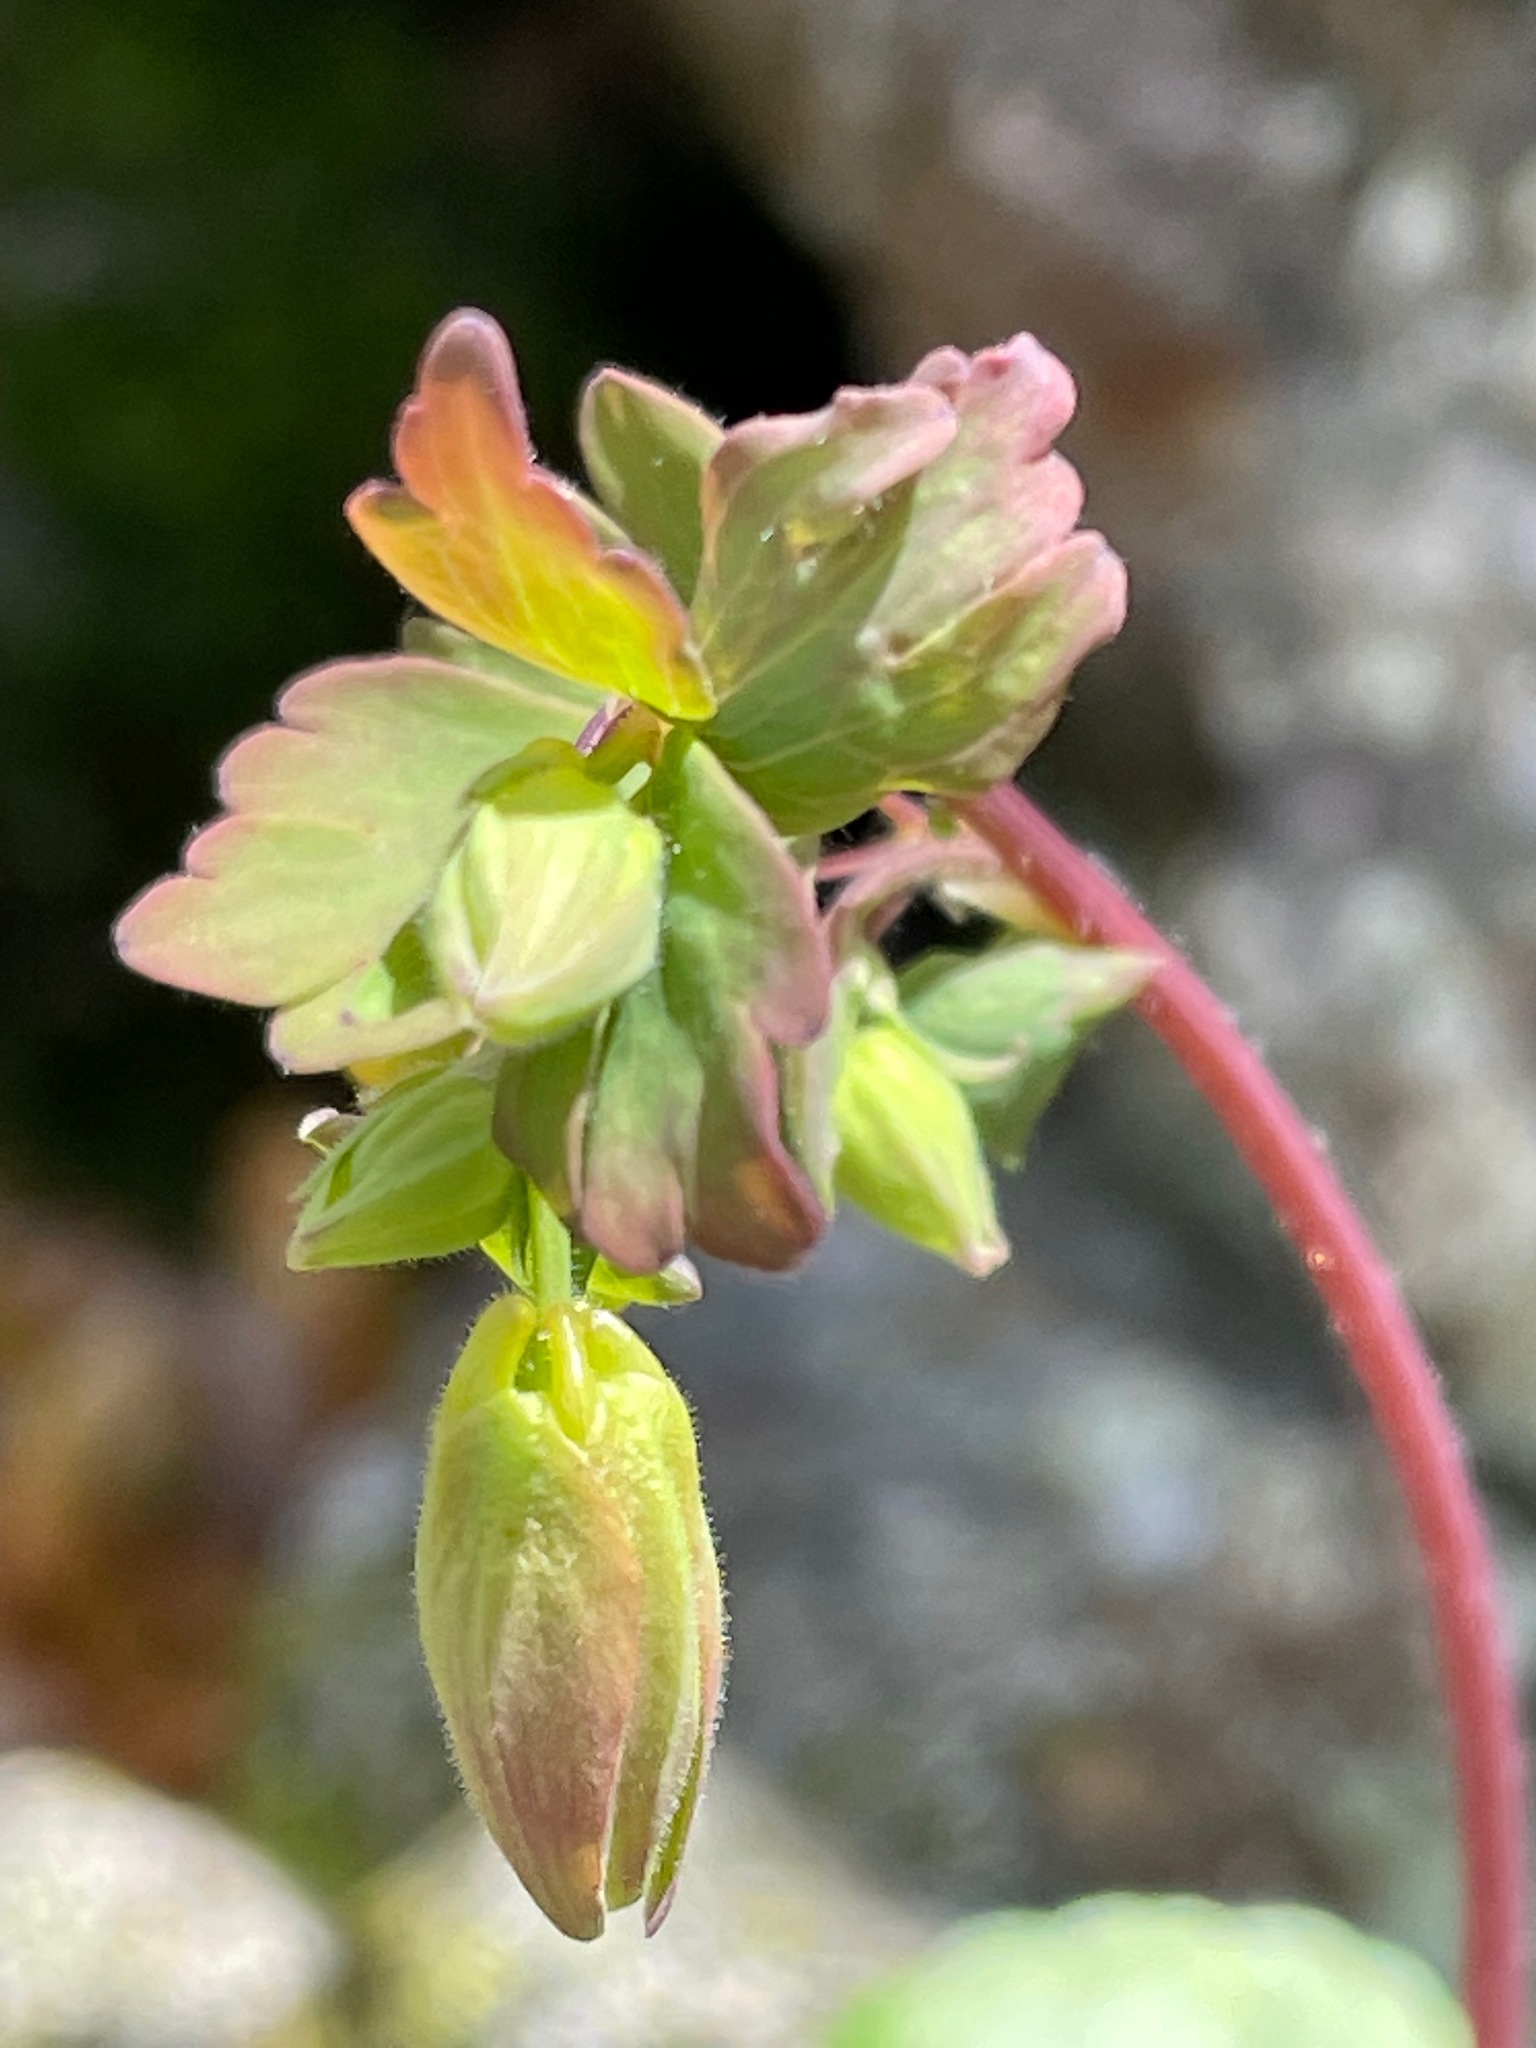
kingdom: Plantae
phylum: Tracheophyta
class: Magnoliopsida
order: Ranunculales
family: Ranunculaceae
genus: Aquilegia
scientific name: Aquilegia canadensis
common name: American columbine
